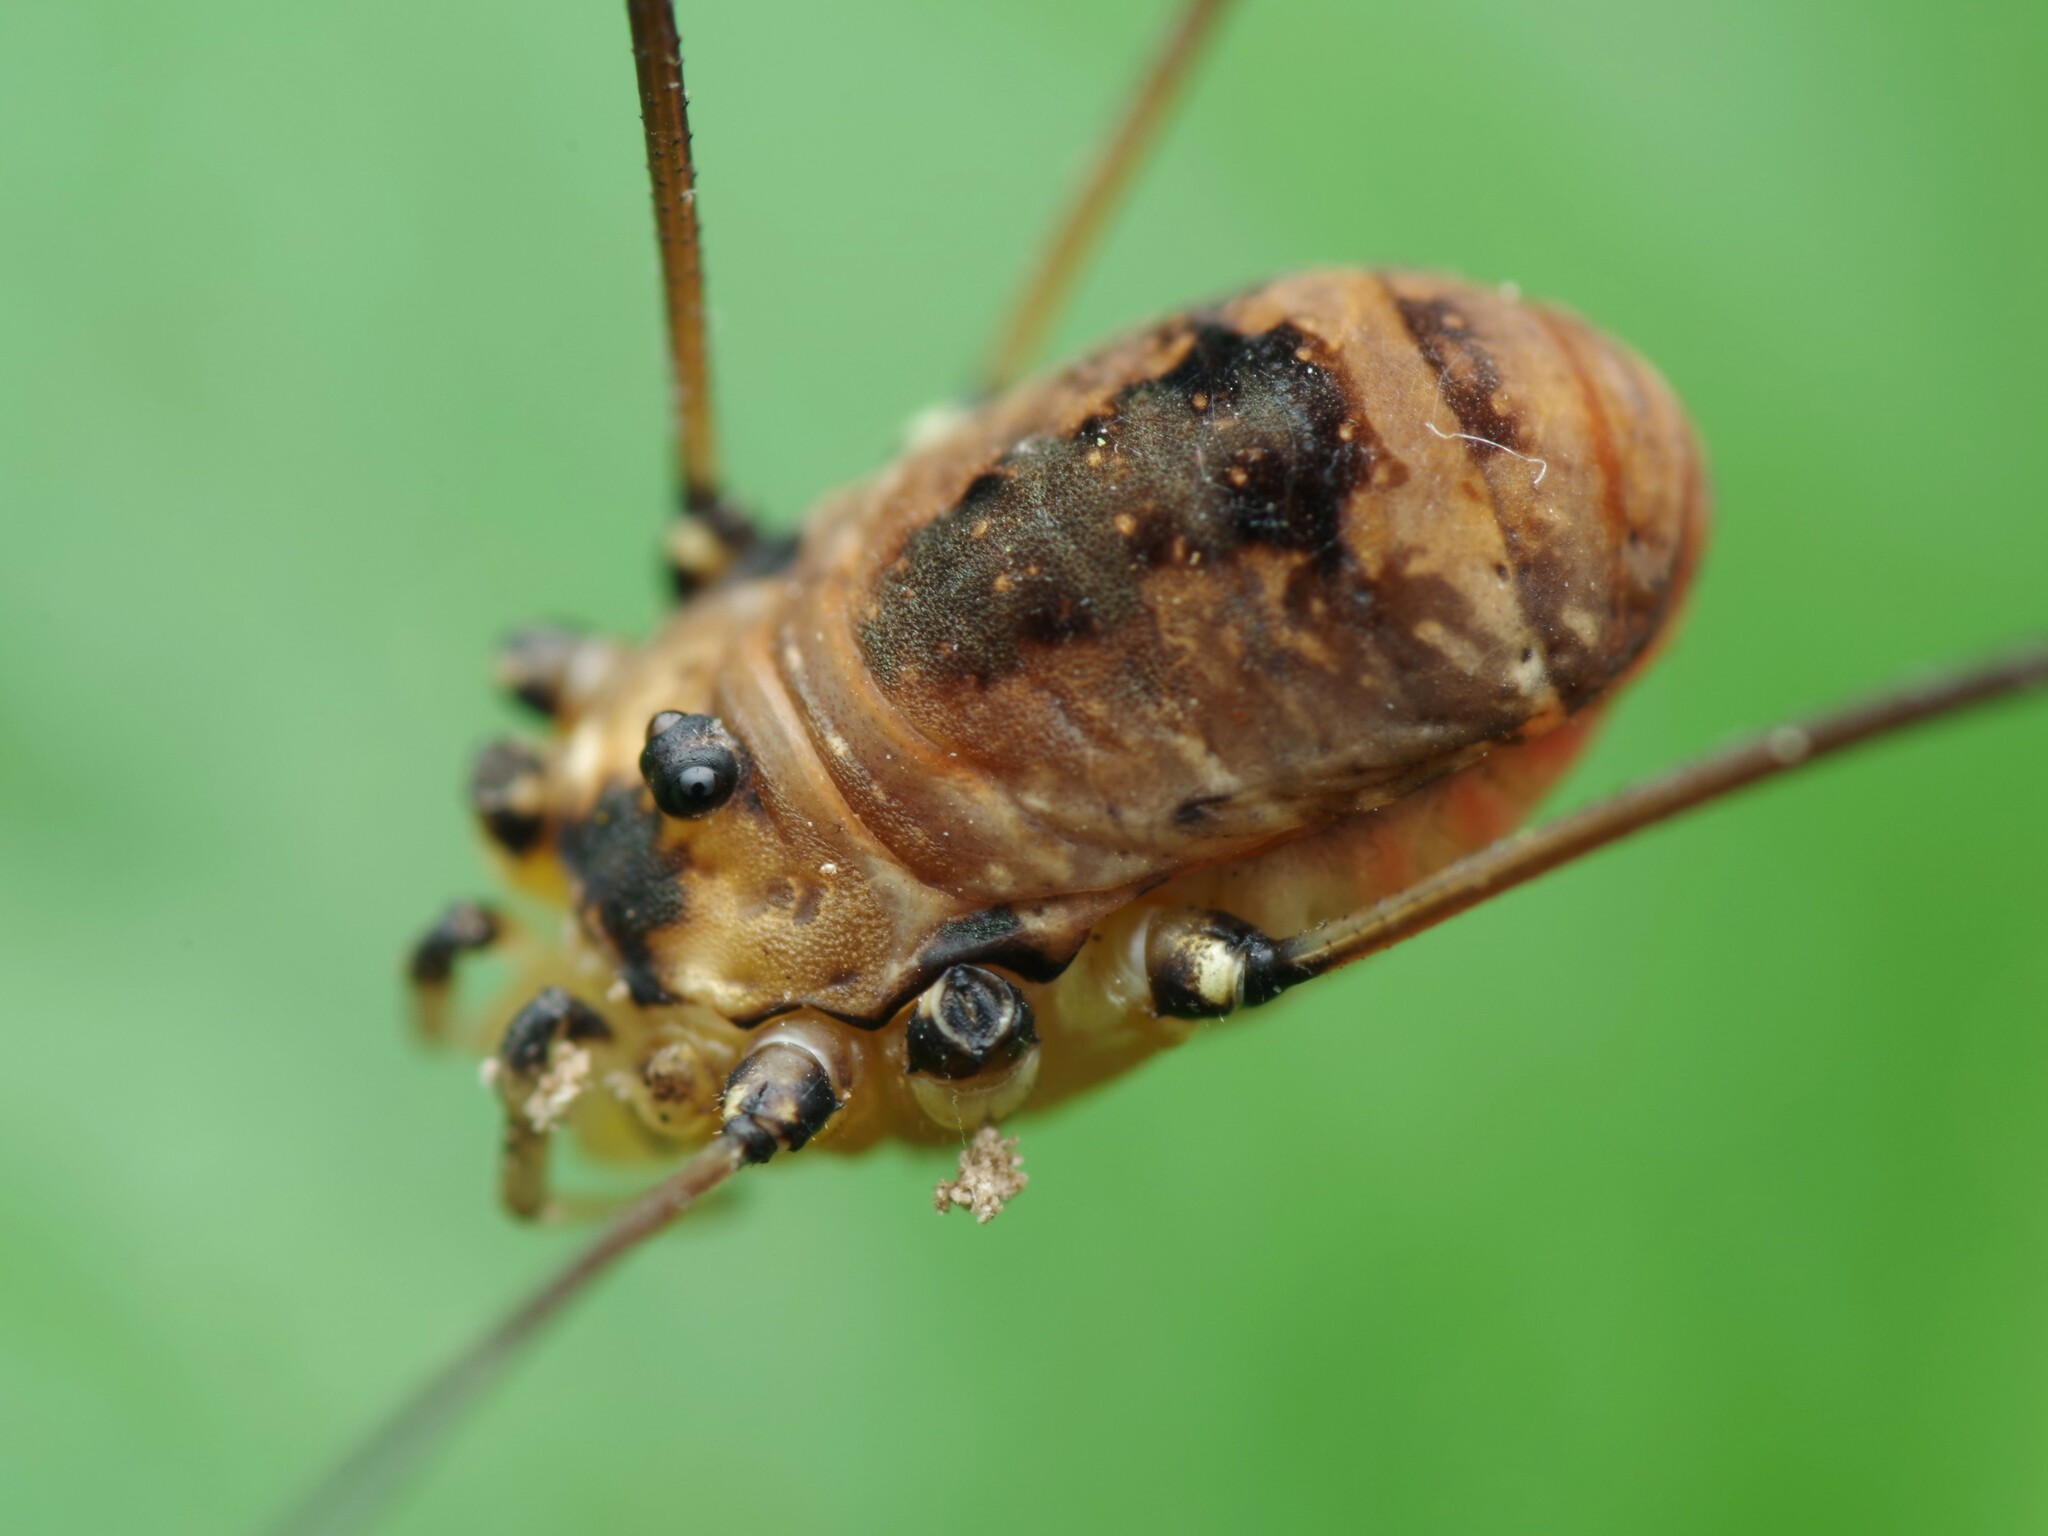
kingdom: Animalia
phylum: Arthropoda
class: Arachnida
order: Opiliones
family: Sclerosomatidae
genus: Leiobunum
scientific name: Leiobunum rotundum
